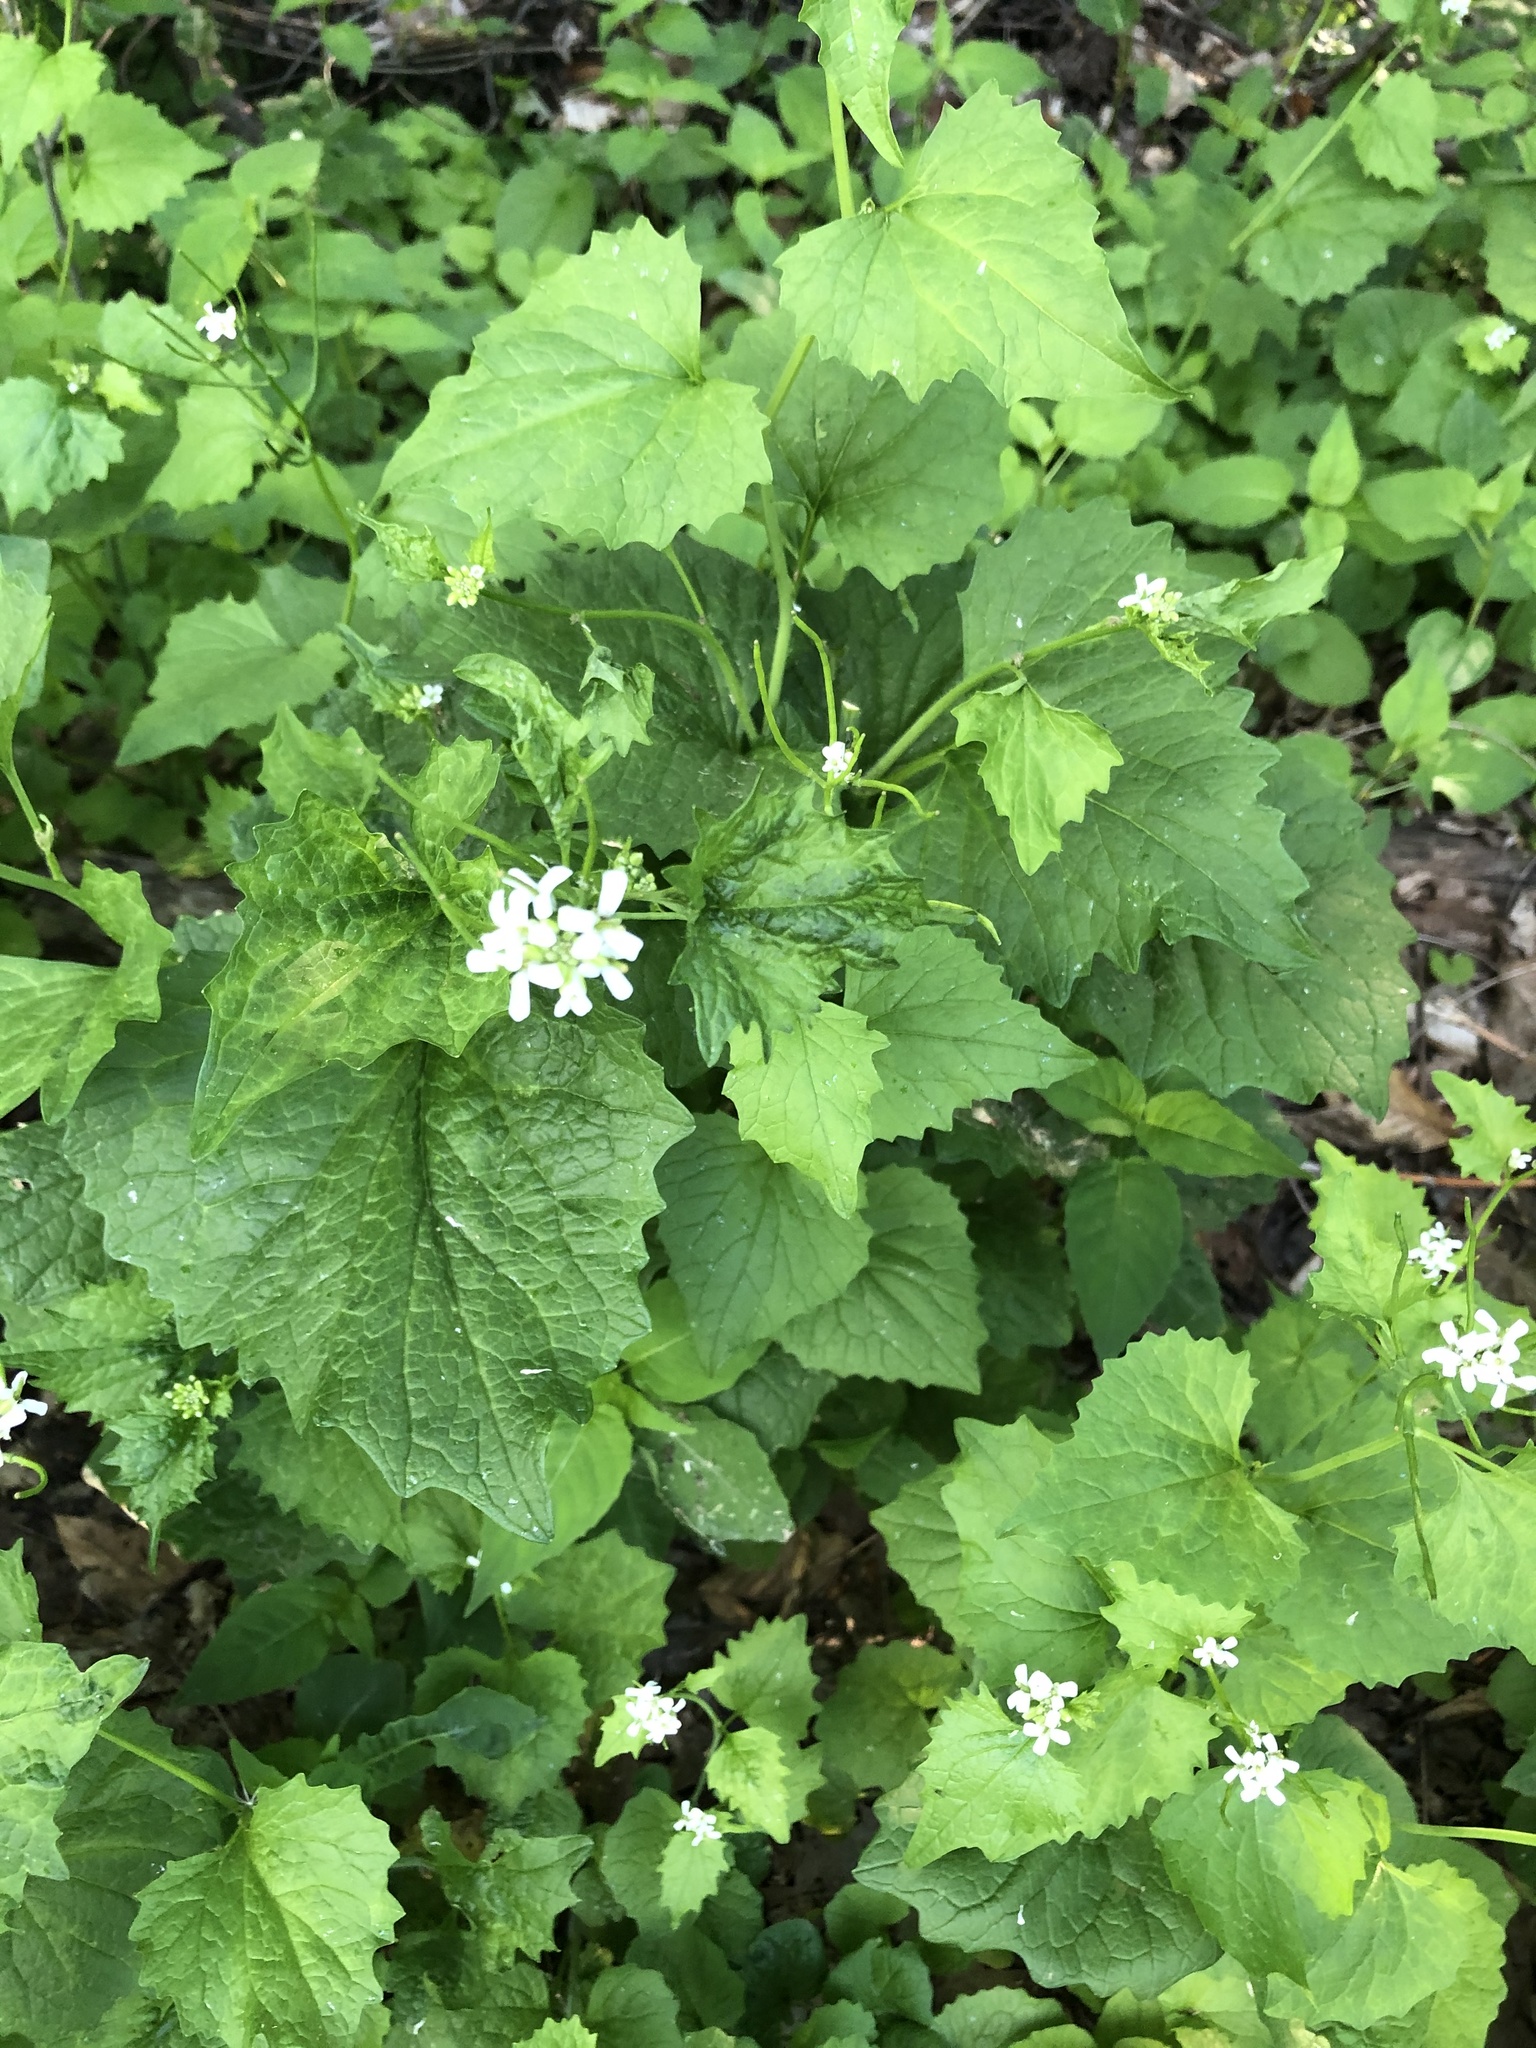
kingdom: Plantae
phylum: Tracheophyta
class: Magnoliopsida
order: Brassicales
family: Brassicaceae
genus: Alliaria
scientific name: Alliaria petiolata
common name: Garlic mustard
